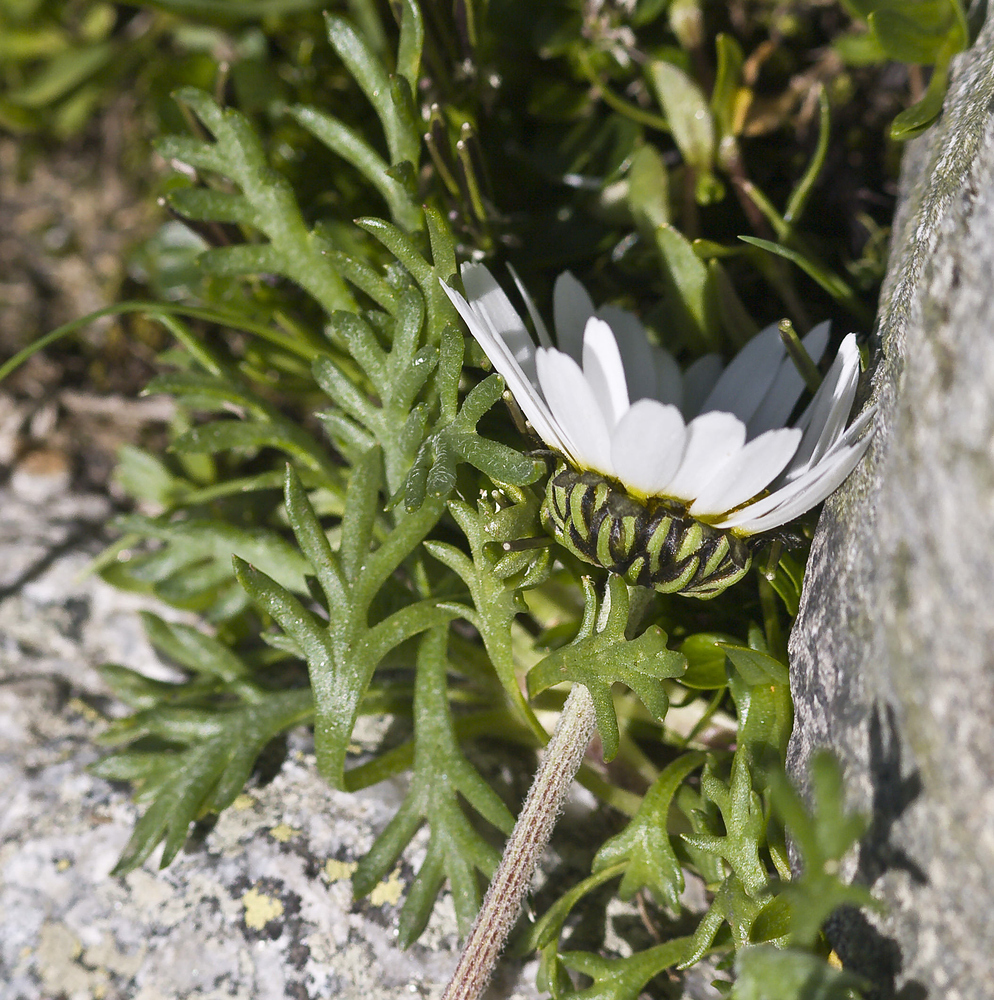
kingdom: Plantae
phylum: Tracheophyta
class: Magnoliopsida
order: Asterales
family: Asteraceae
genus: Leucanthemopsis
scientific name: Leucanthemopsis alpina
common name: Alpine moon daisy
